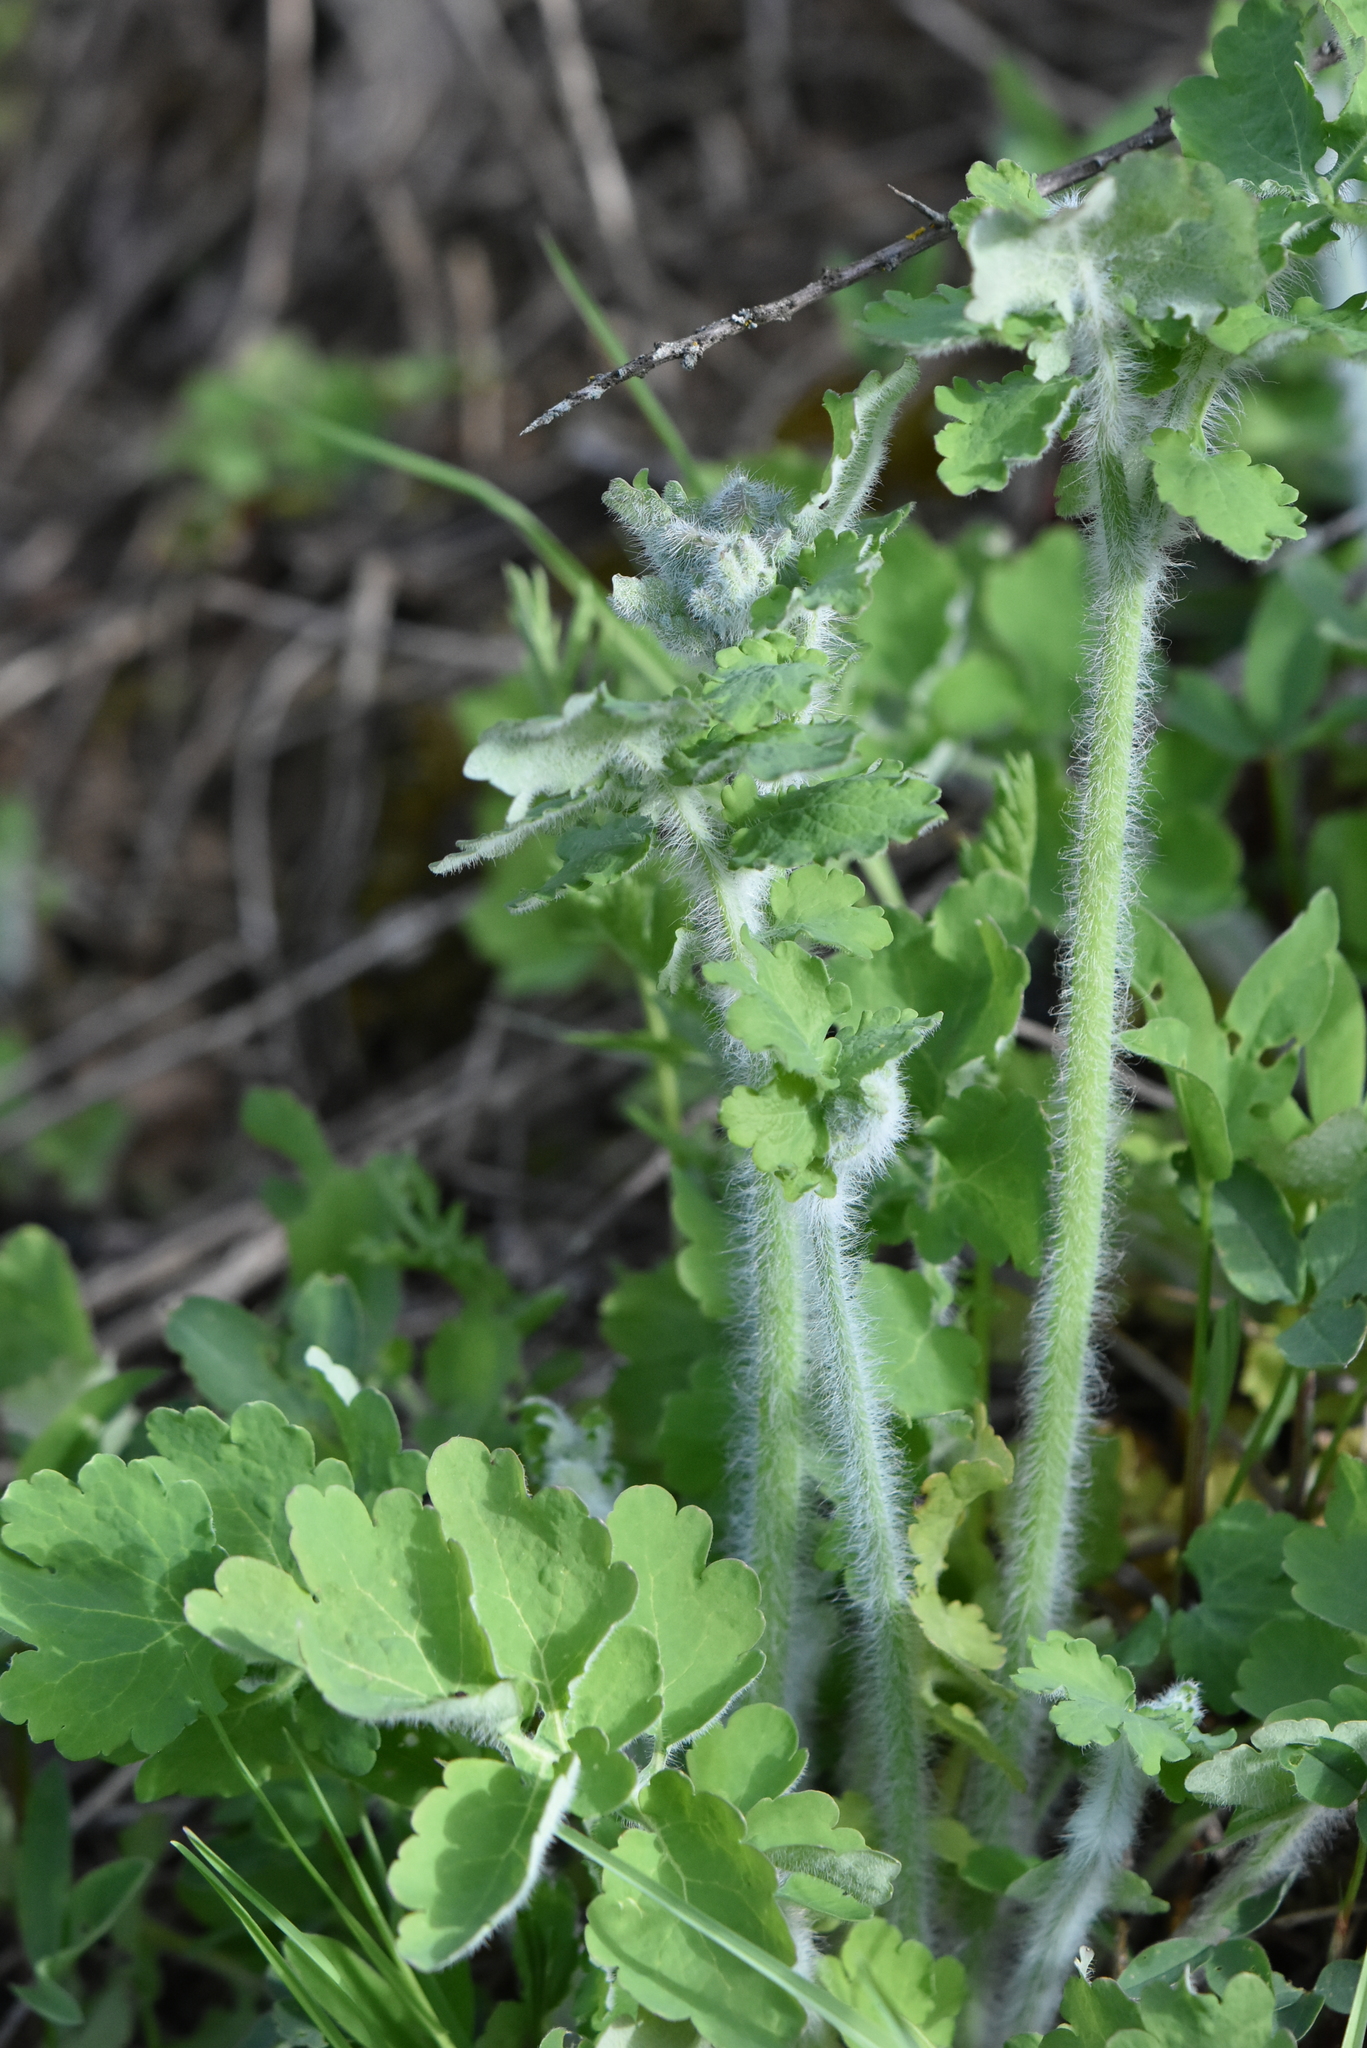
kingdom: Plantae
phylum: Tracheophyta
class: Magnoliopsida
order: Ranunculales
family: Papaveraceae
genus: Chelidonium
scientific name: Chelidonium majus
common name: Greater celandine
